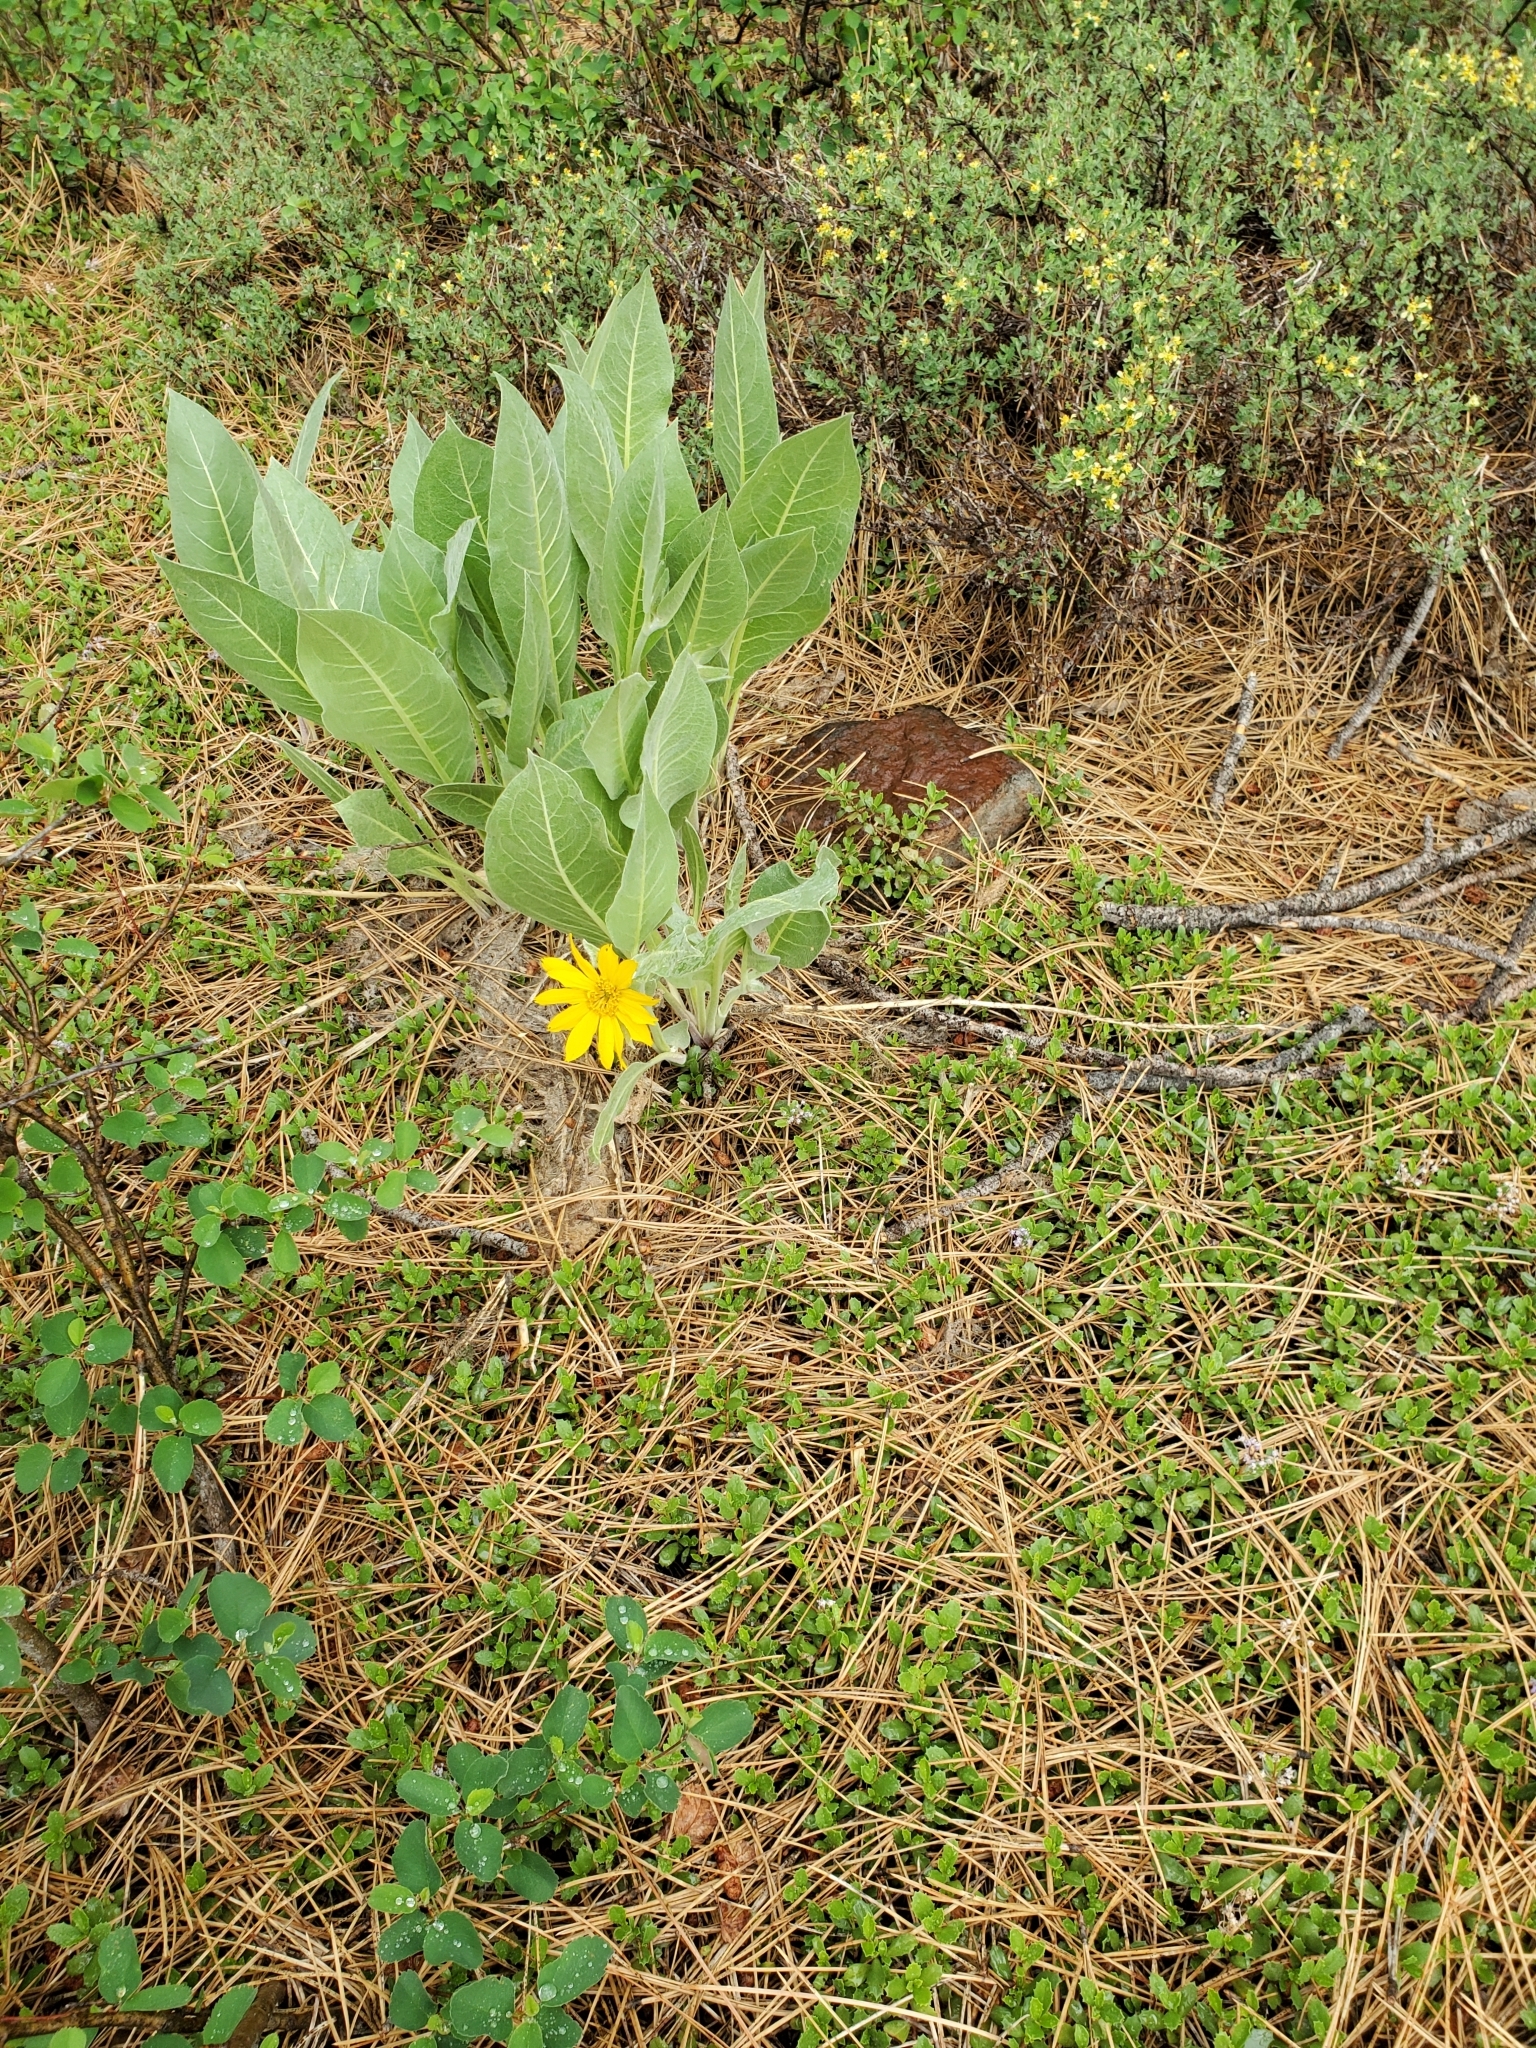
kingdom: Plantae
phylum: Tracheophyta
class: Magnoliopsida
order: Asterales
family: Asteraceae
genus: Wyethia
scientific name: Wyethia mollis
